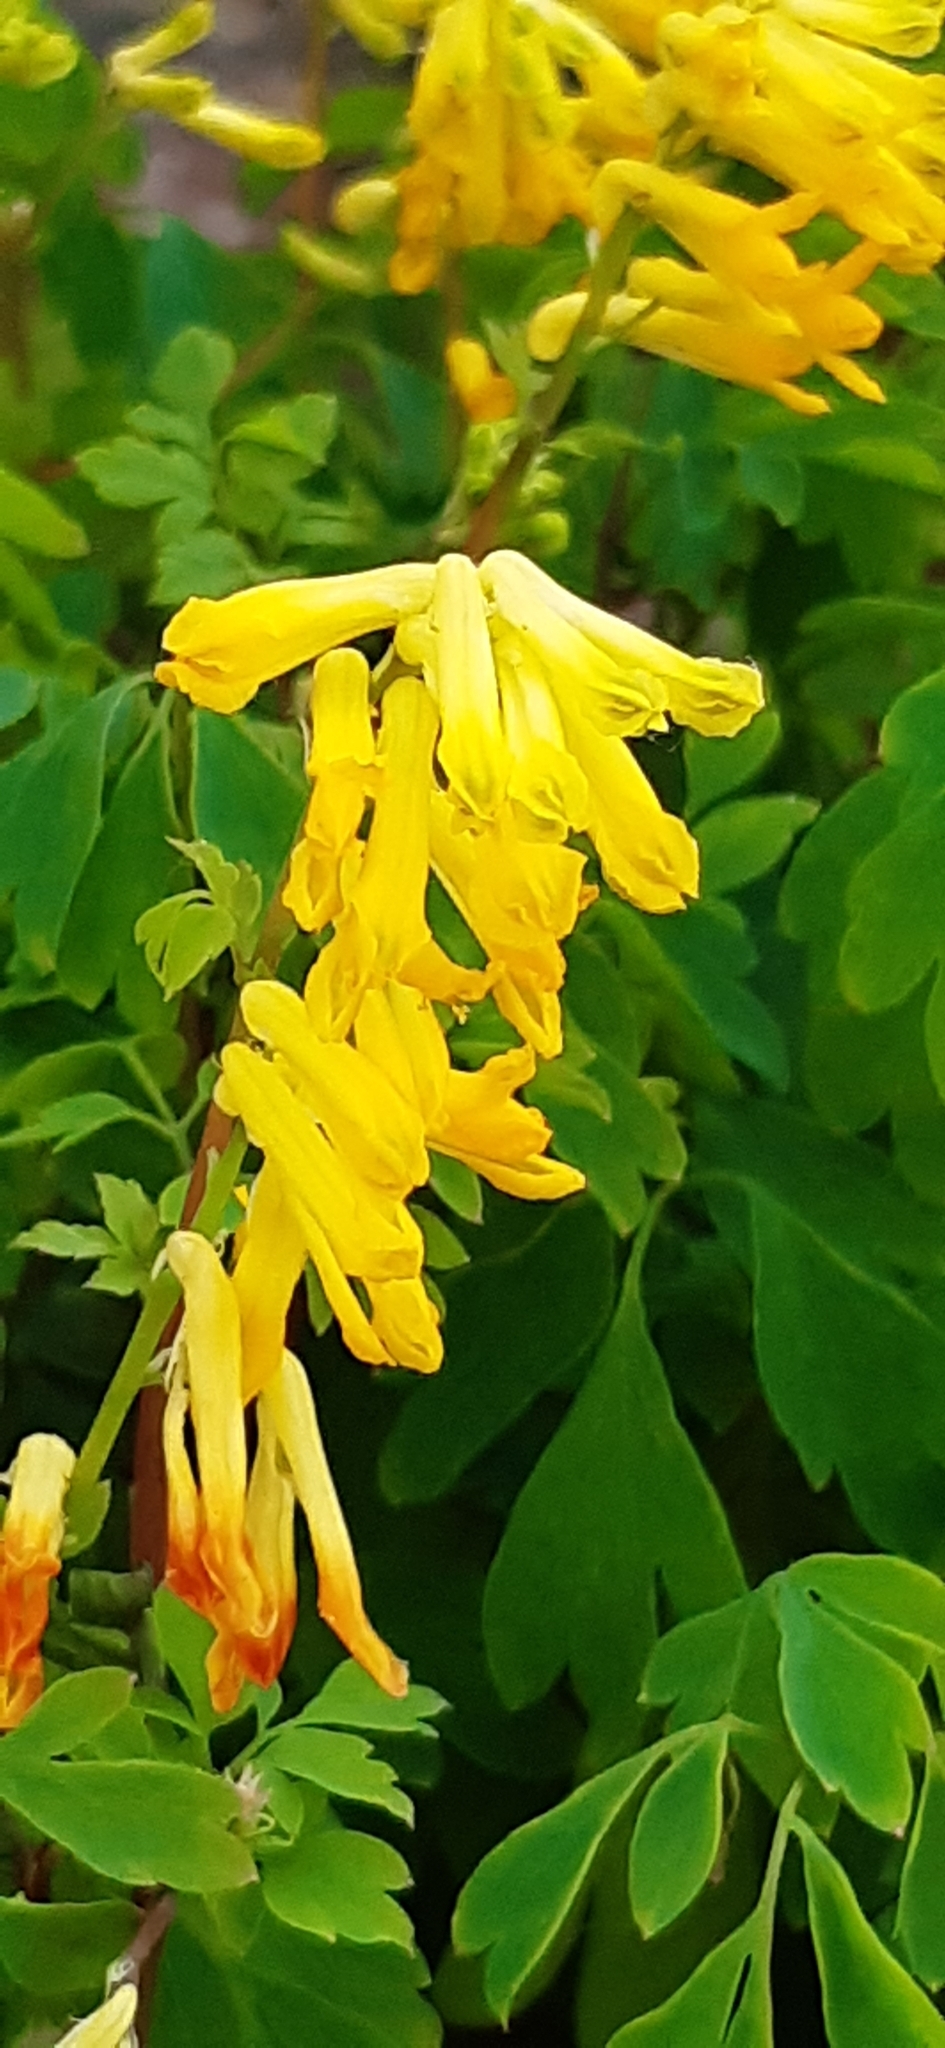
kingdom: Plantae
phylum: Tracheophyta
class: Magnoliopsida
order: Ranunculales
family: Papaveraceae
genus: Pseudofumaria
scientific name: Pseudofumaria lutea
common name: Yellow corydalis
